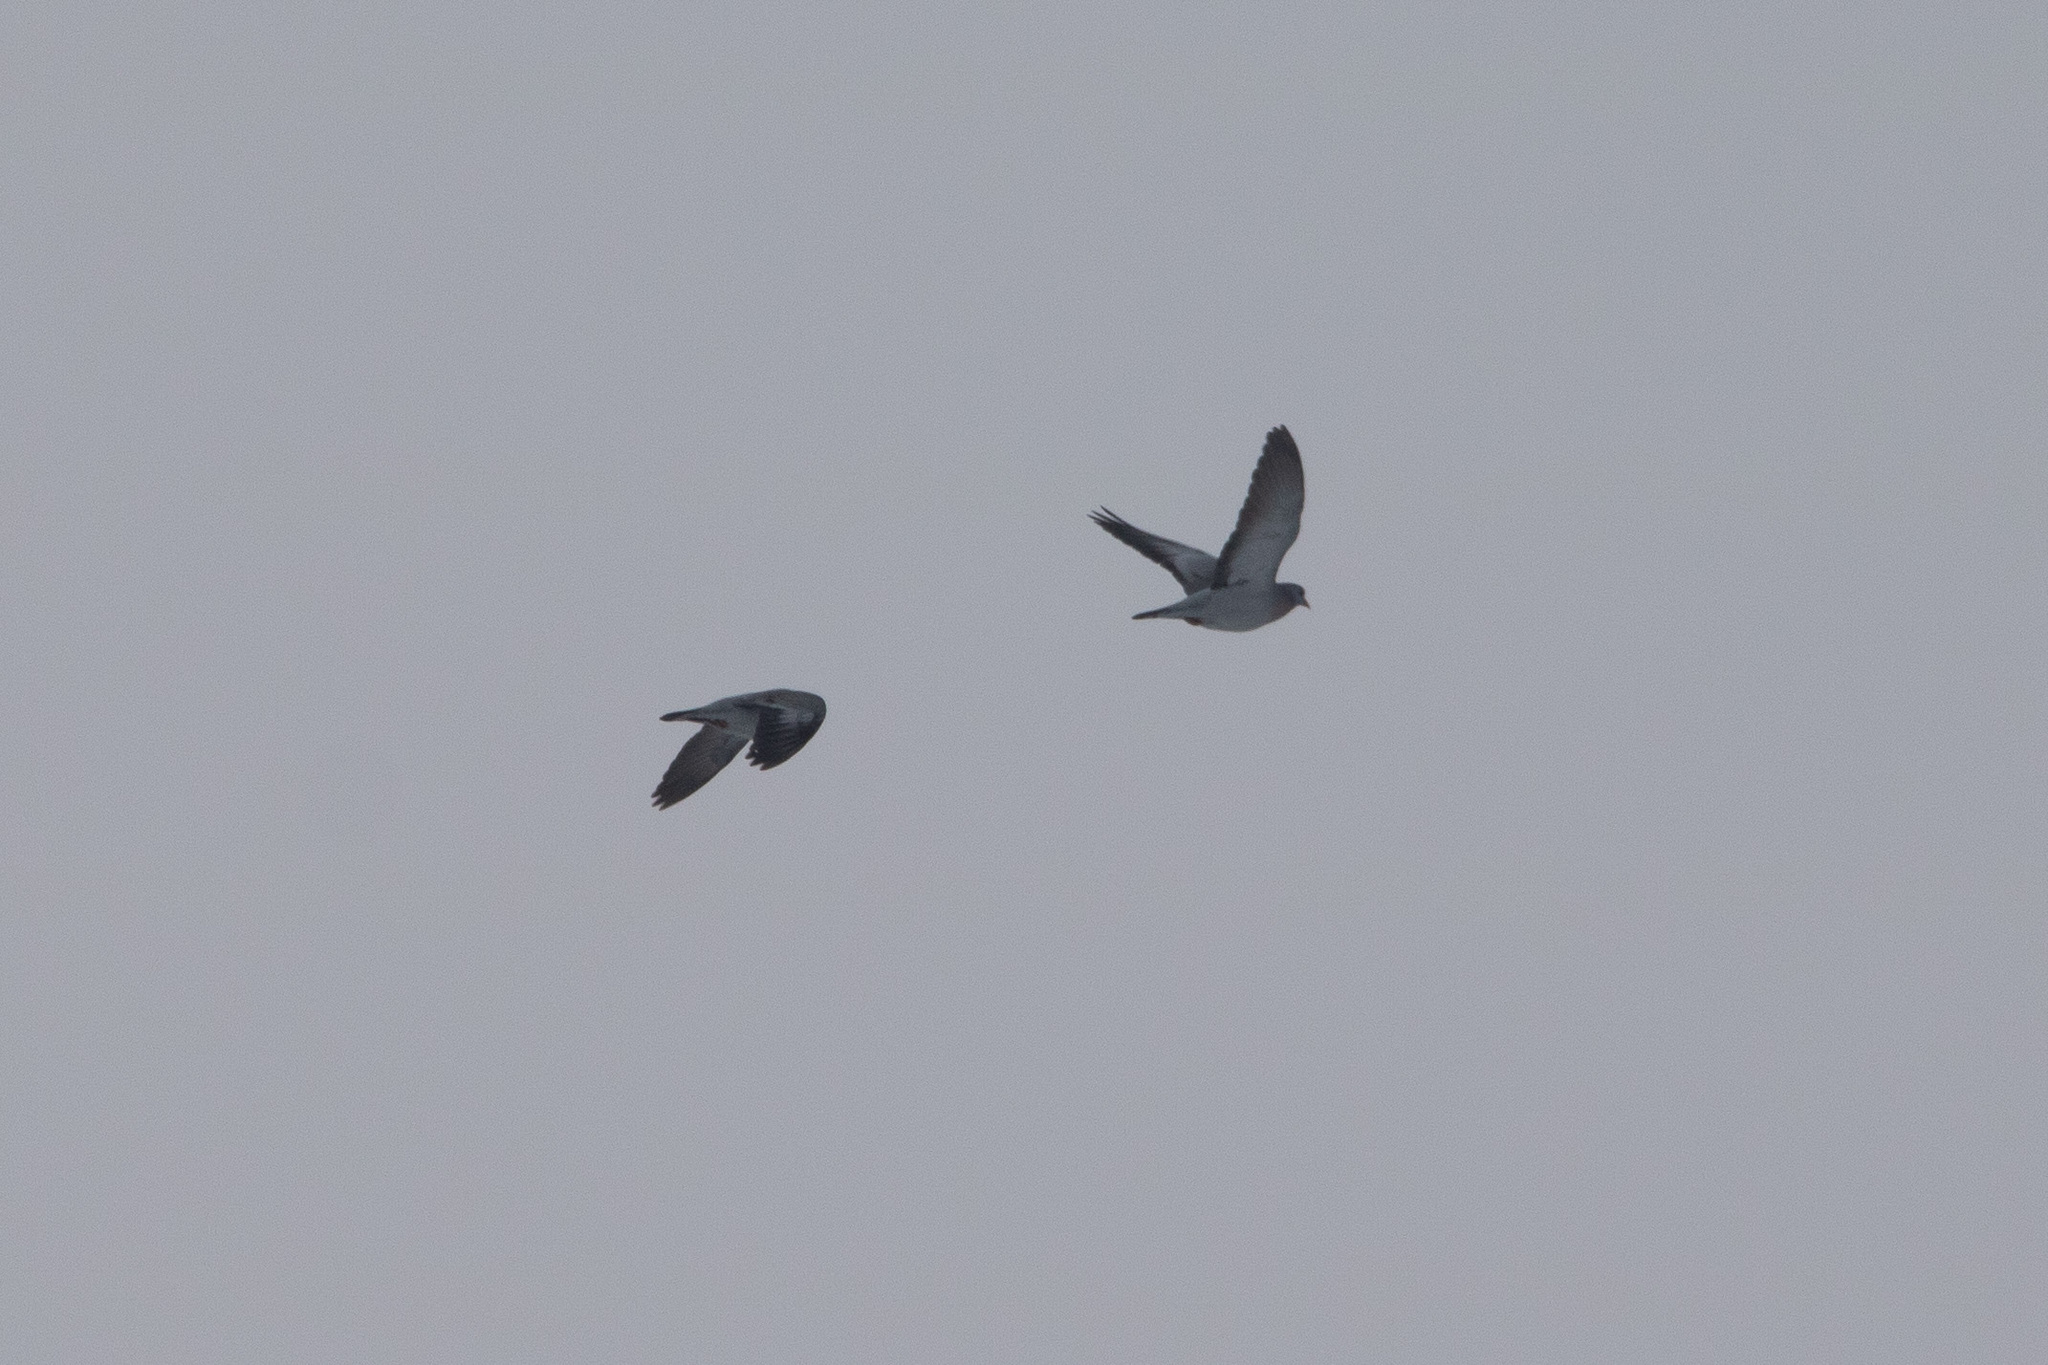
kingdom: Animalia
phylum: Chordata
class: Aves
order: Columbiformes
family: Columbidae
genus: Columba
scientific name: Columba oenas
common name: Stock dove
